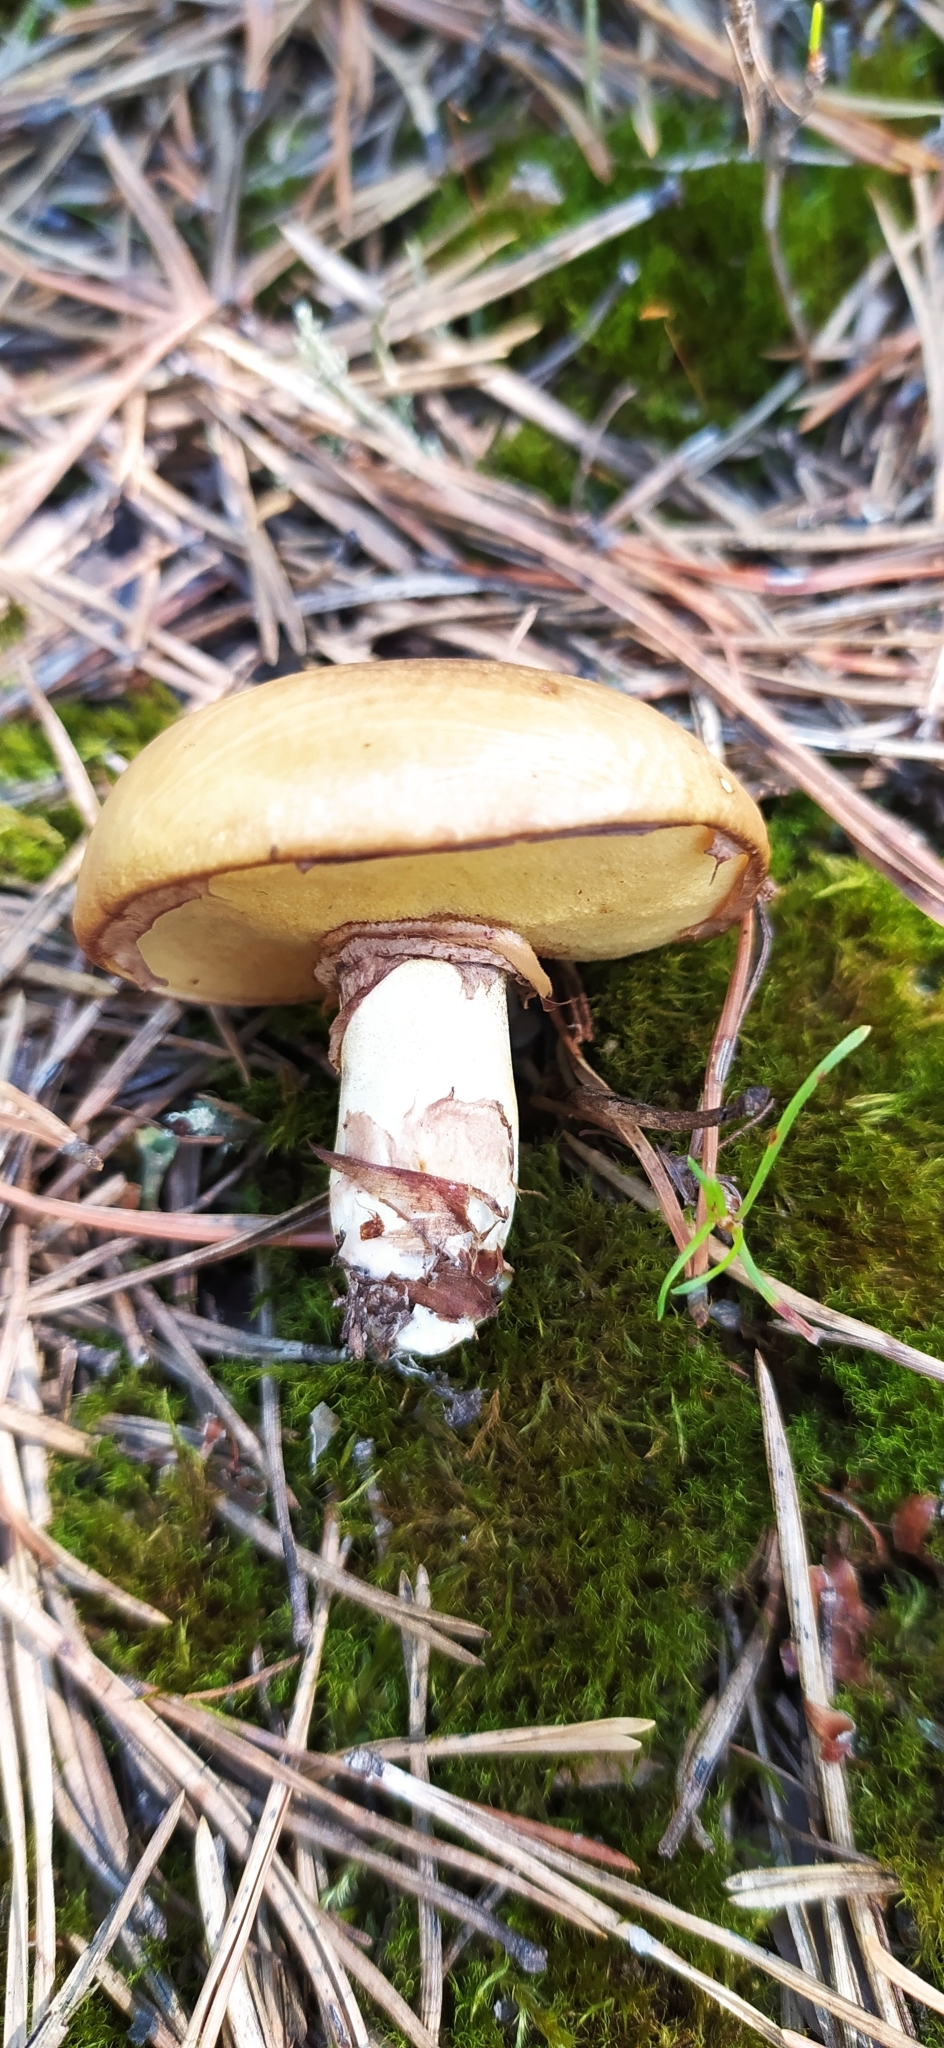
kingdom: Fungi
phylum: Basidiomycota
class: Agaricomycetes
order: Boletales
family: Suillaceae
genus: Suillus
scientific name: Suillus luteus
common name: Slippery jack
